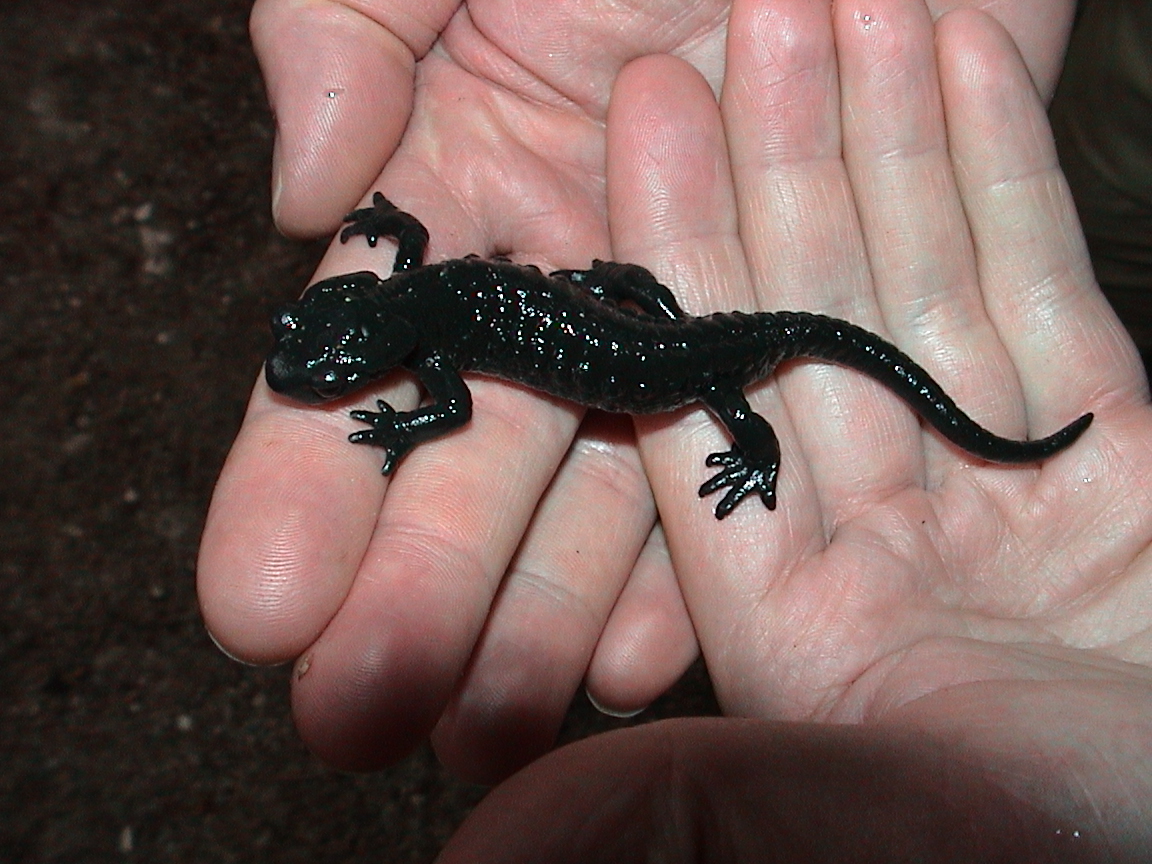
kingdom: Animalia
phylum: Chordata
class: Amphibia
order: Caudata
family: Salamandridae
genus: Salamandra
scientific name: Salamandra atra
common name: Alpine salamander
